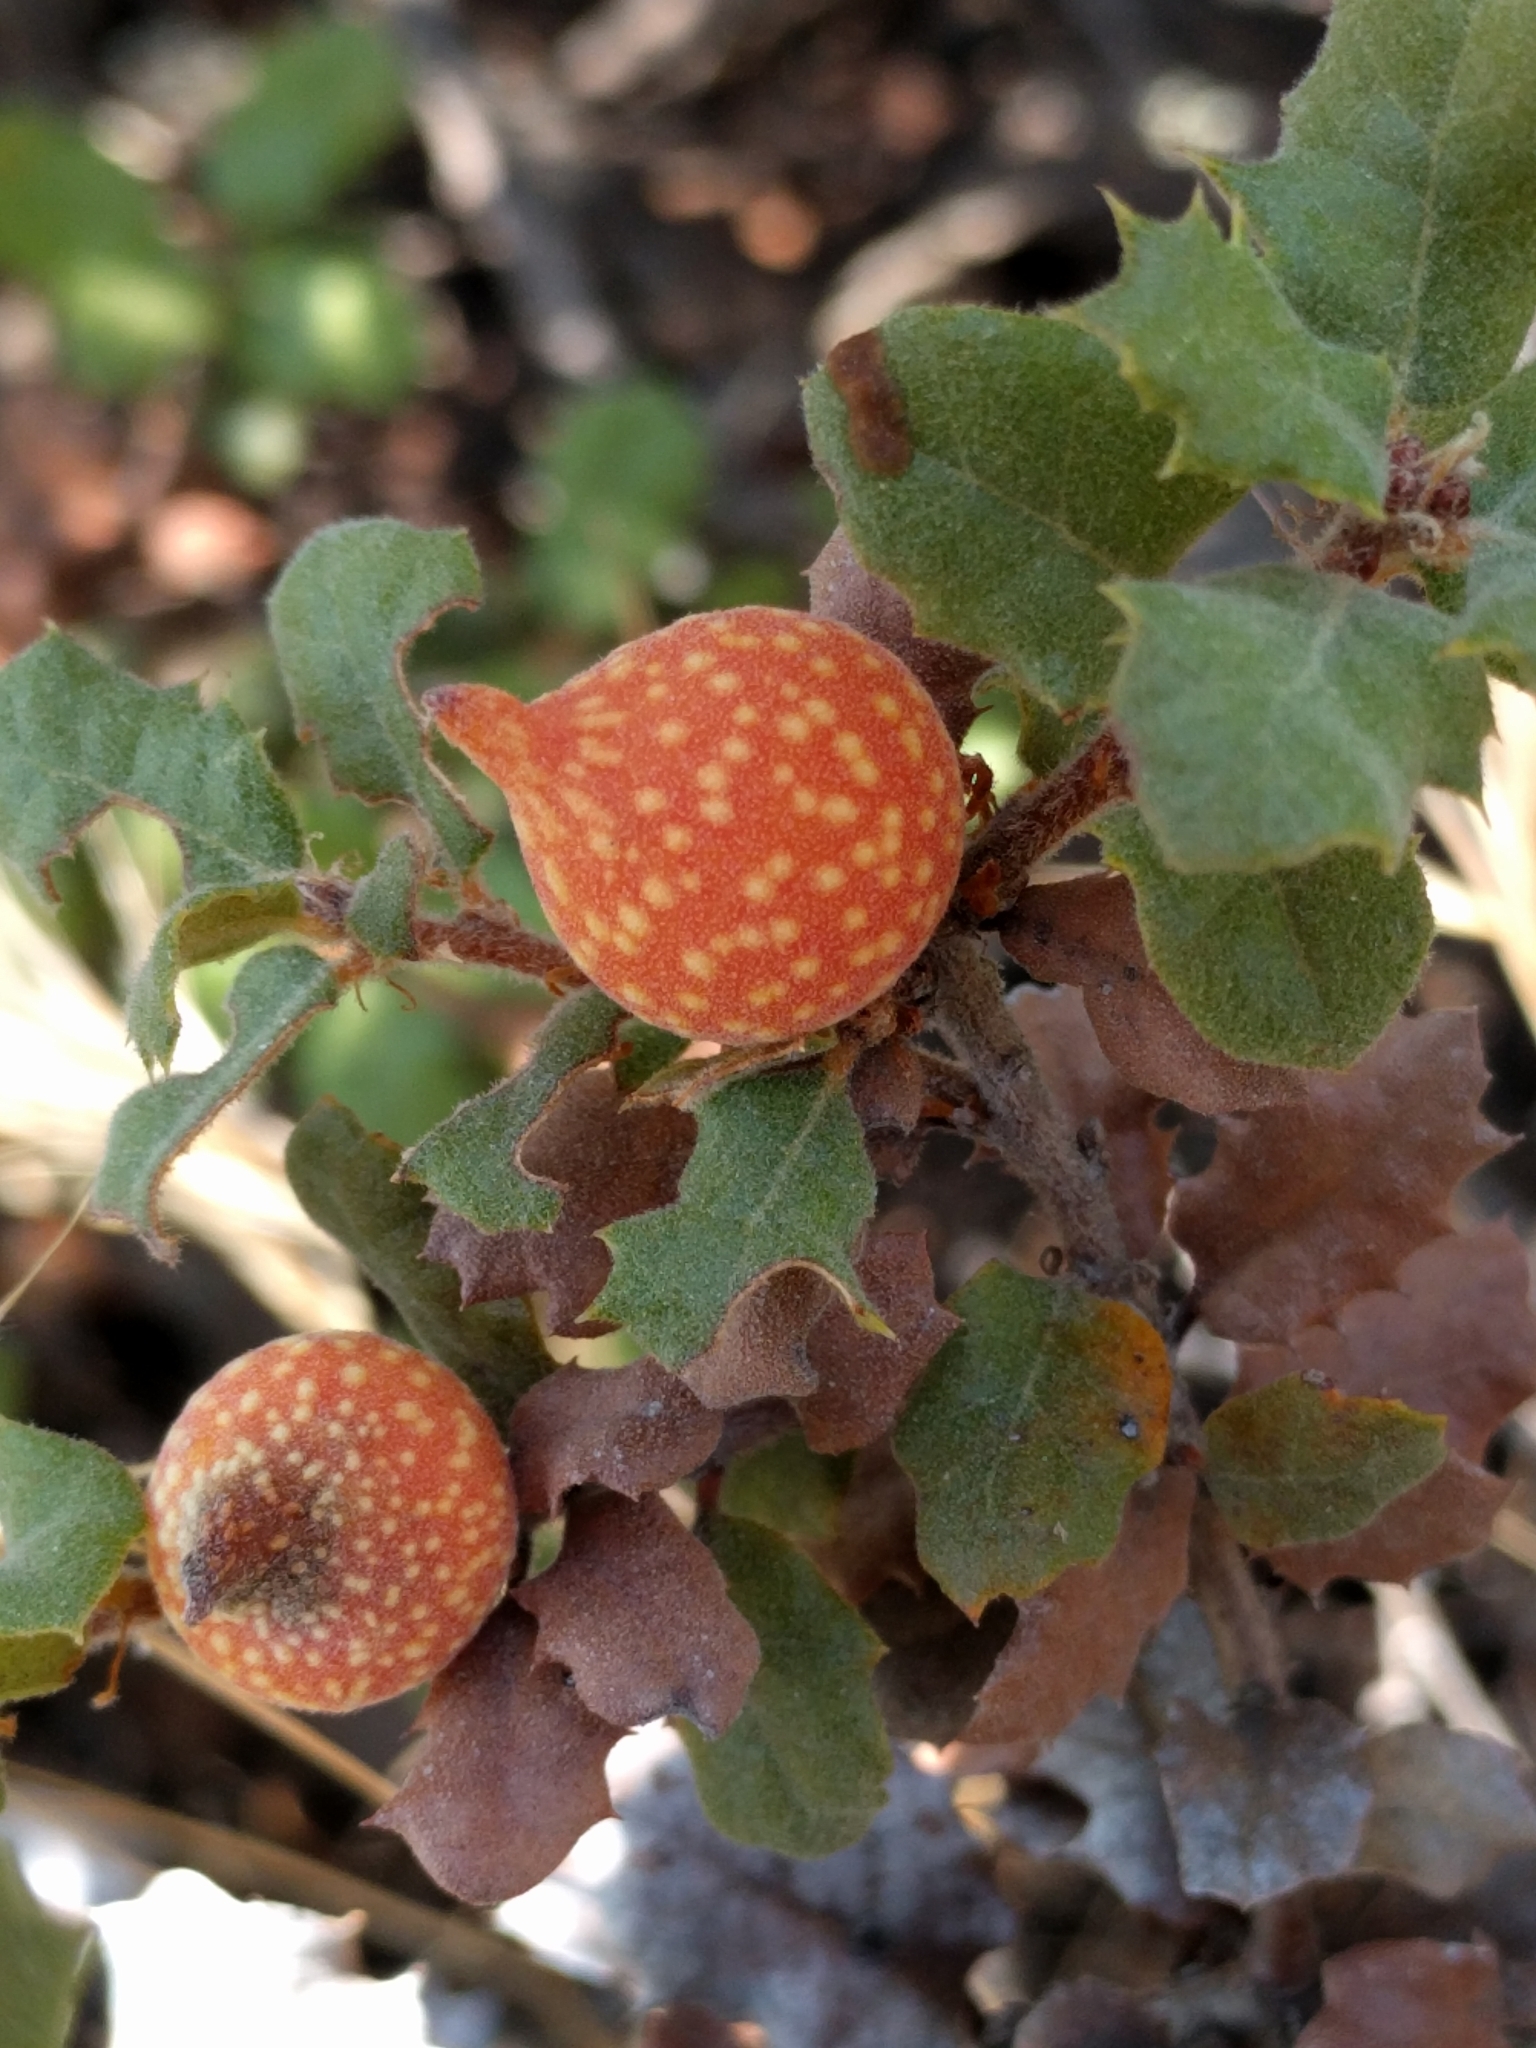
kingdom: Animalia
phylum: Arthropoda
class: Insecta
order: Hymenoptera
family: Cynipidae
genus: Burnettweldia
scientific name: Burnettweldia
